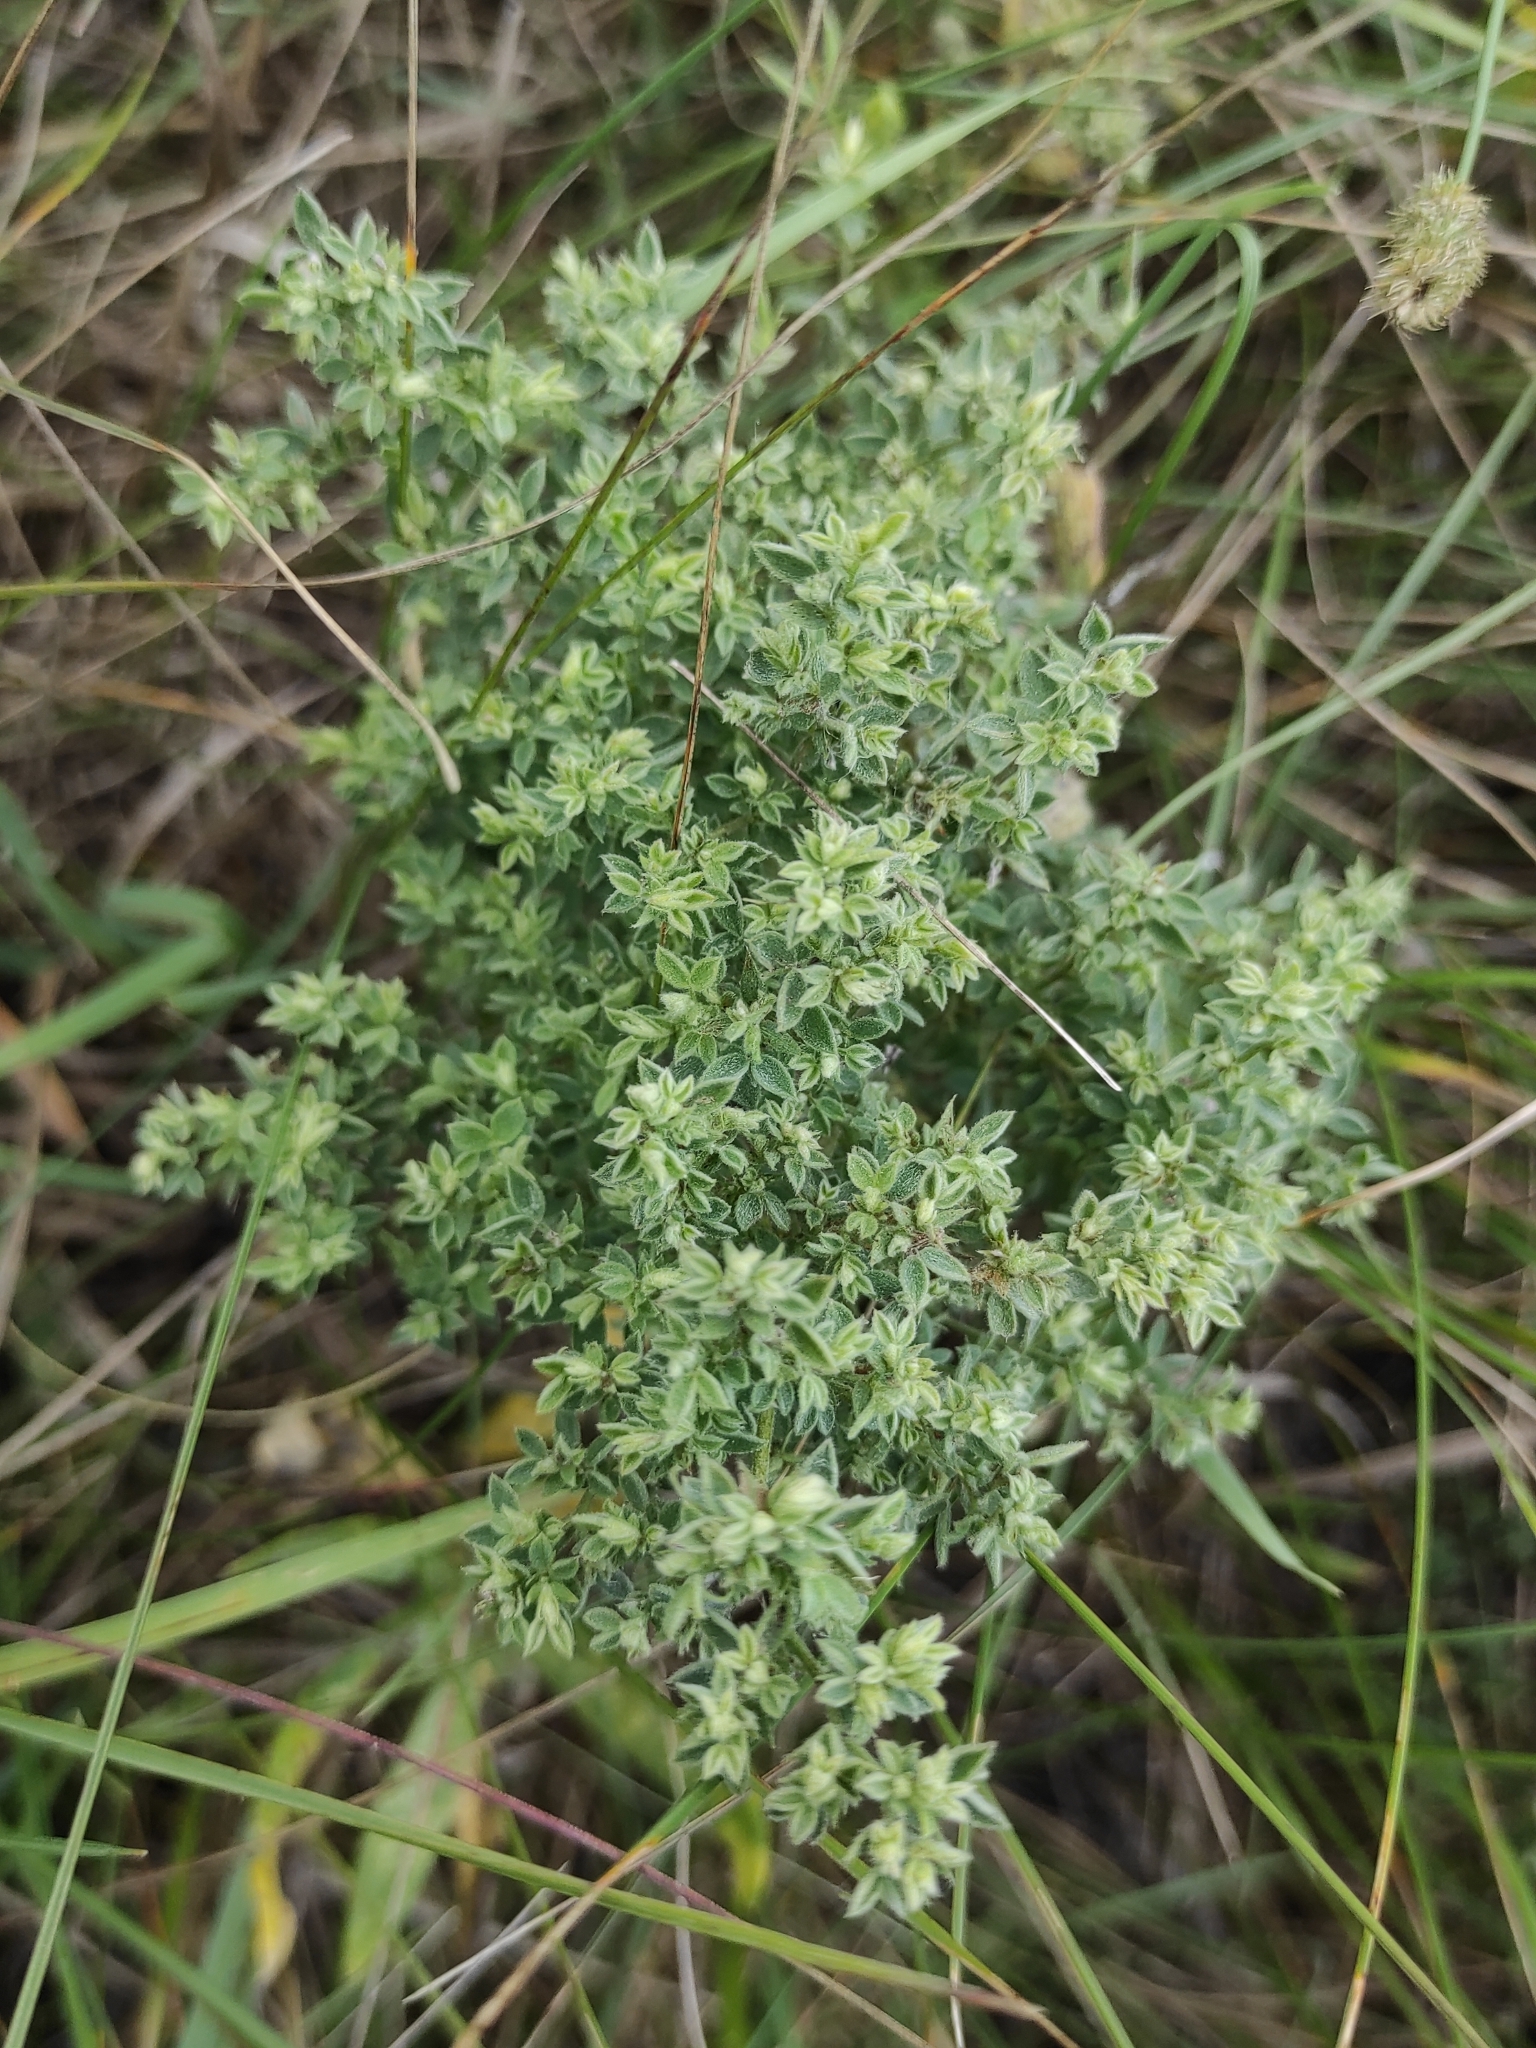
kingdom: Plantae
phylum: Tracheophyta
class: Magnoliopsida
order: Fabales
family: Fabaceae
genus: Medicago
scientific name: Medicago falcata
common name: Sickle medick
